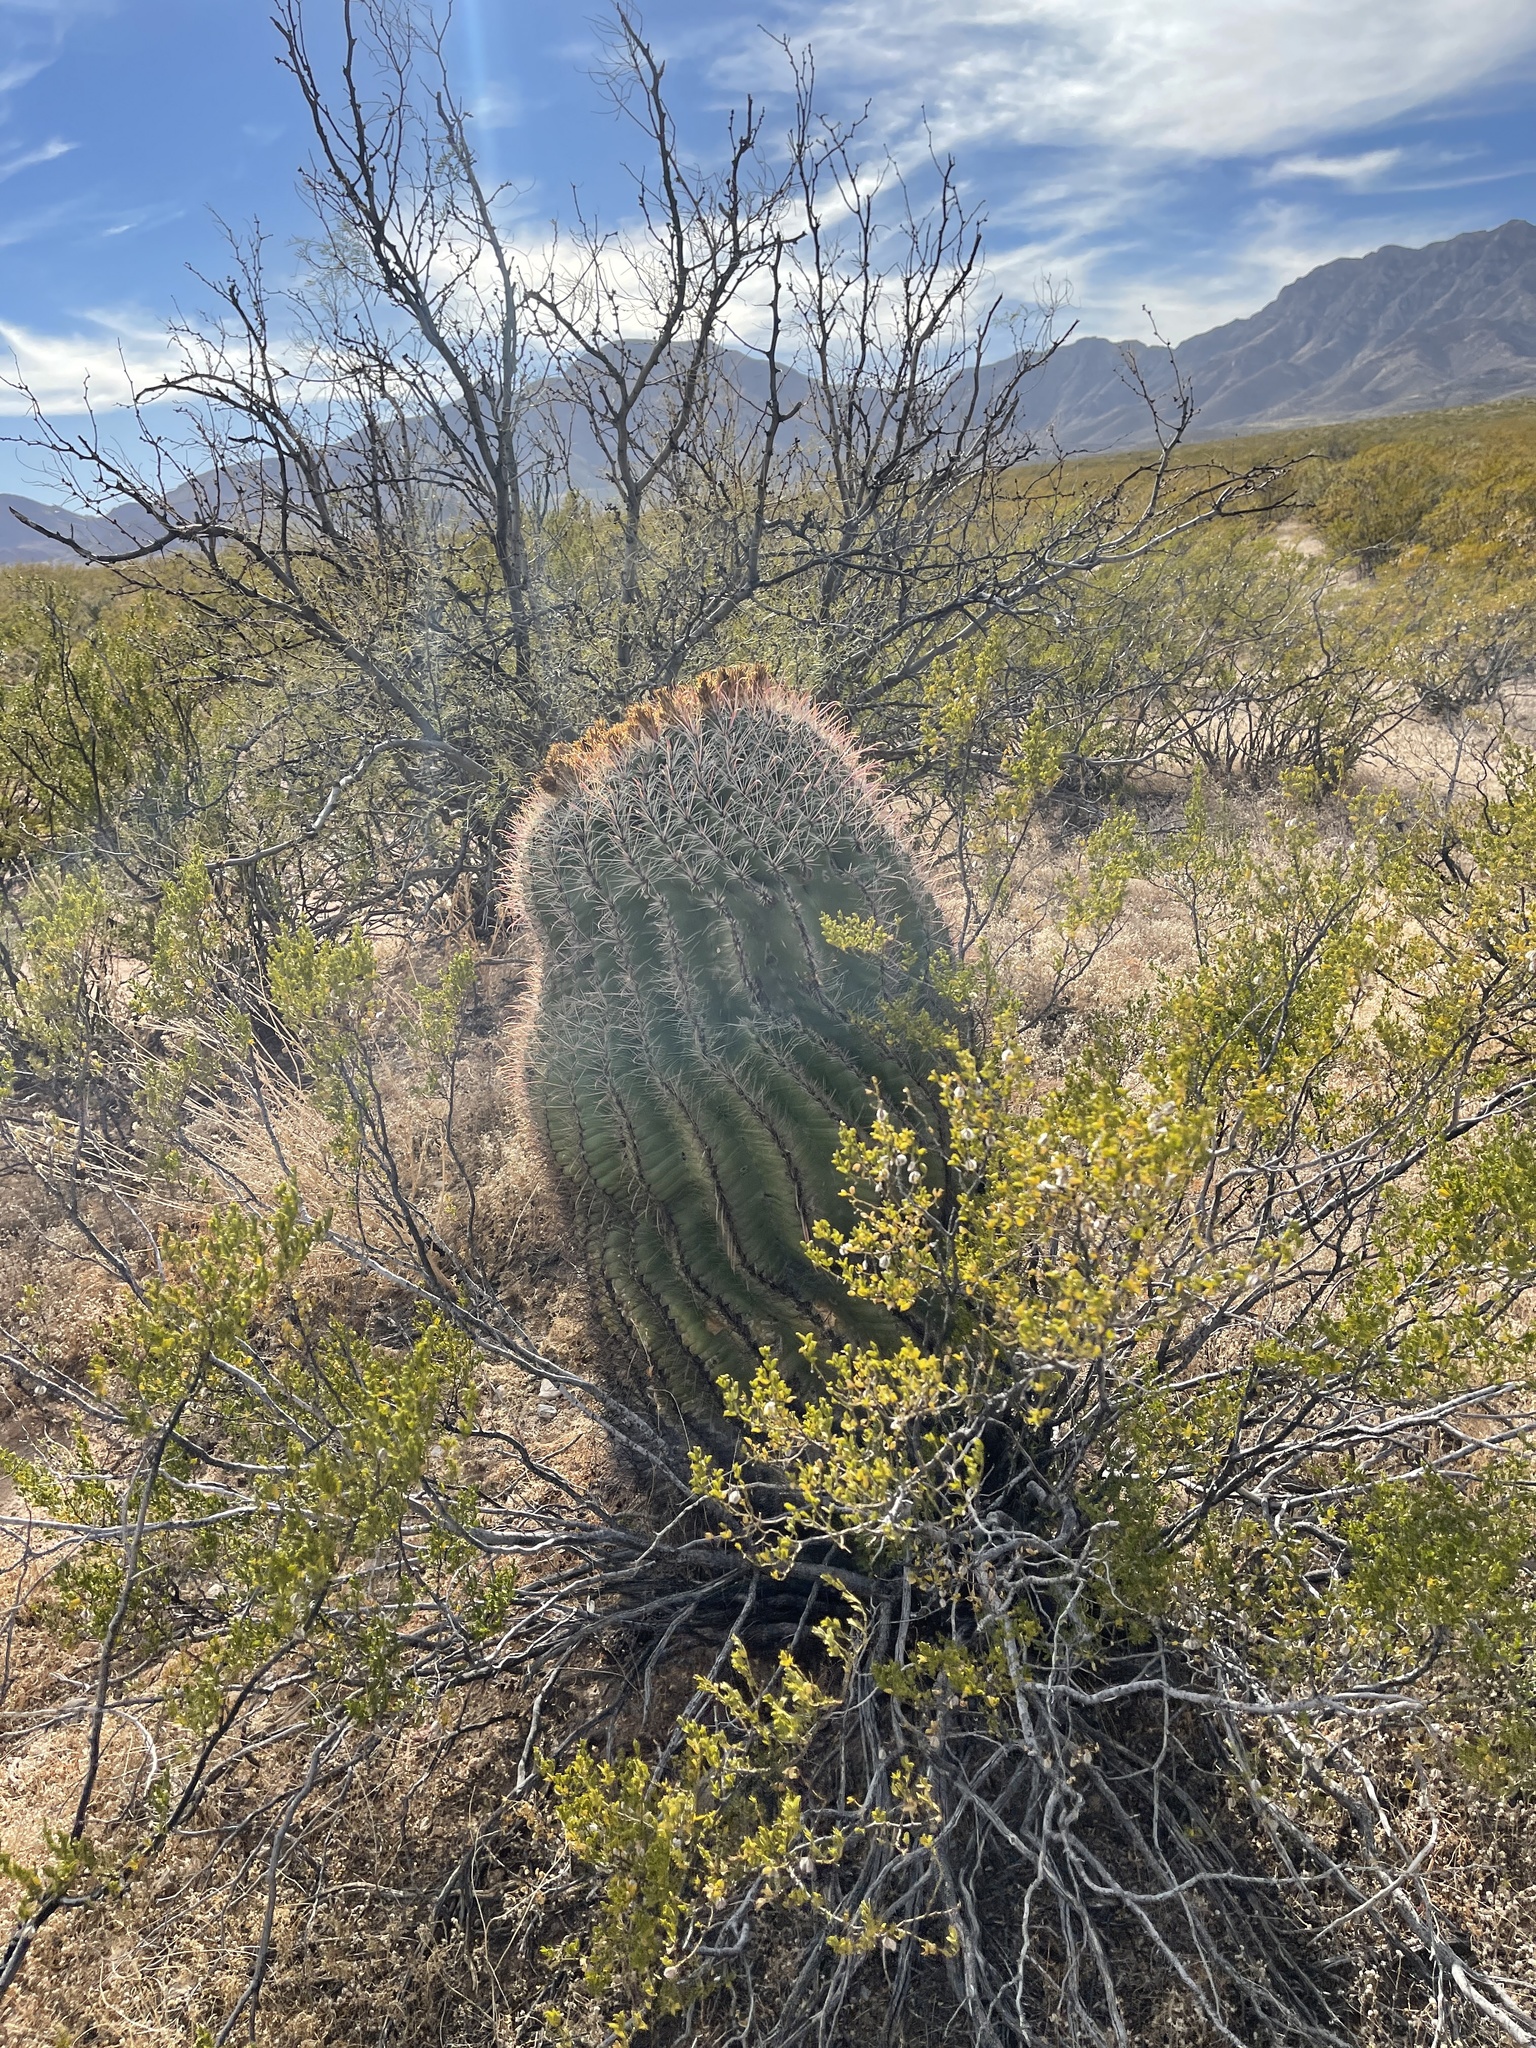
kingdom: Plantae
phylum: Tracheophyta
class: Magnoliopsida
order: Caryophyllales
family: Cactaceae
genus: Ferocactus
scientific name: Ferocactus wislizeni
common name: Candy barrel cactus
